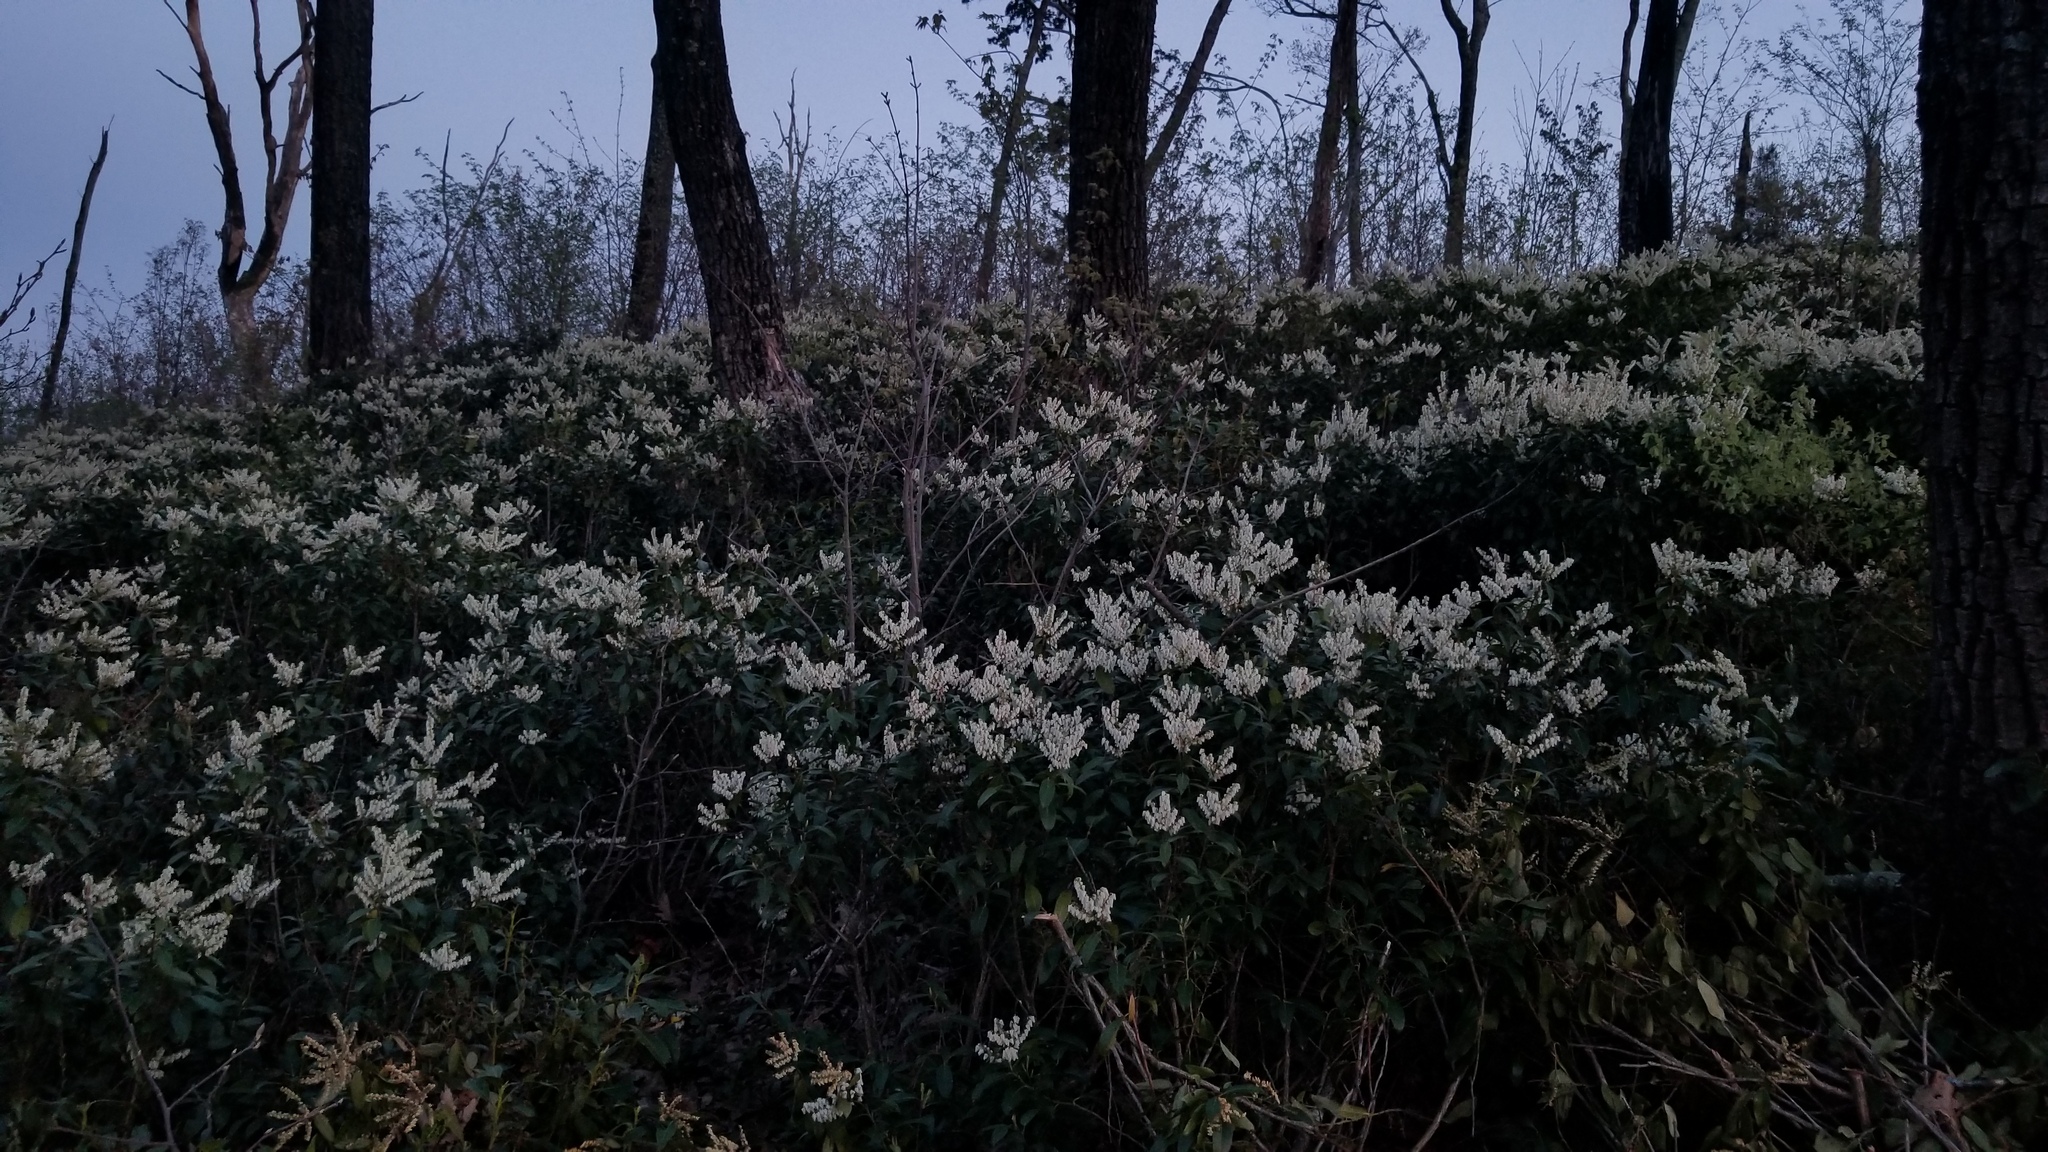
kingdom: Plantae
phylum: Tracheophyta
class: Magnoliopsida
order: Ericales
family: Ericaceae
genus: Pieris
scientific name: Pieris floribunda
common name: Flutterbush
